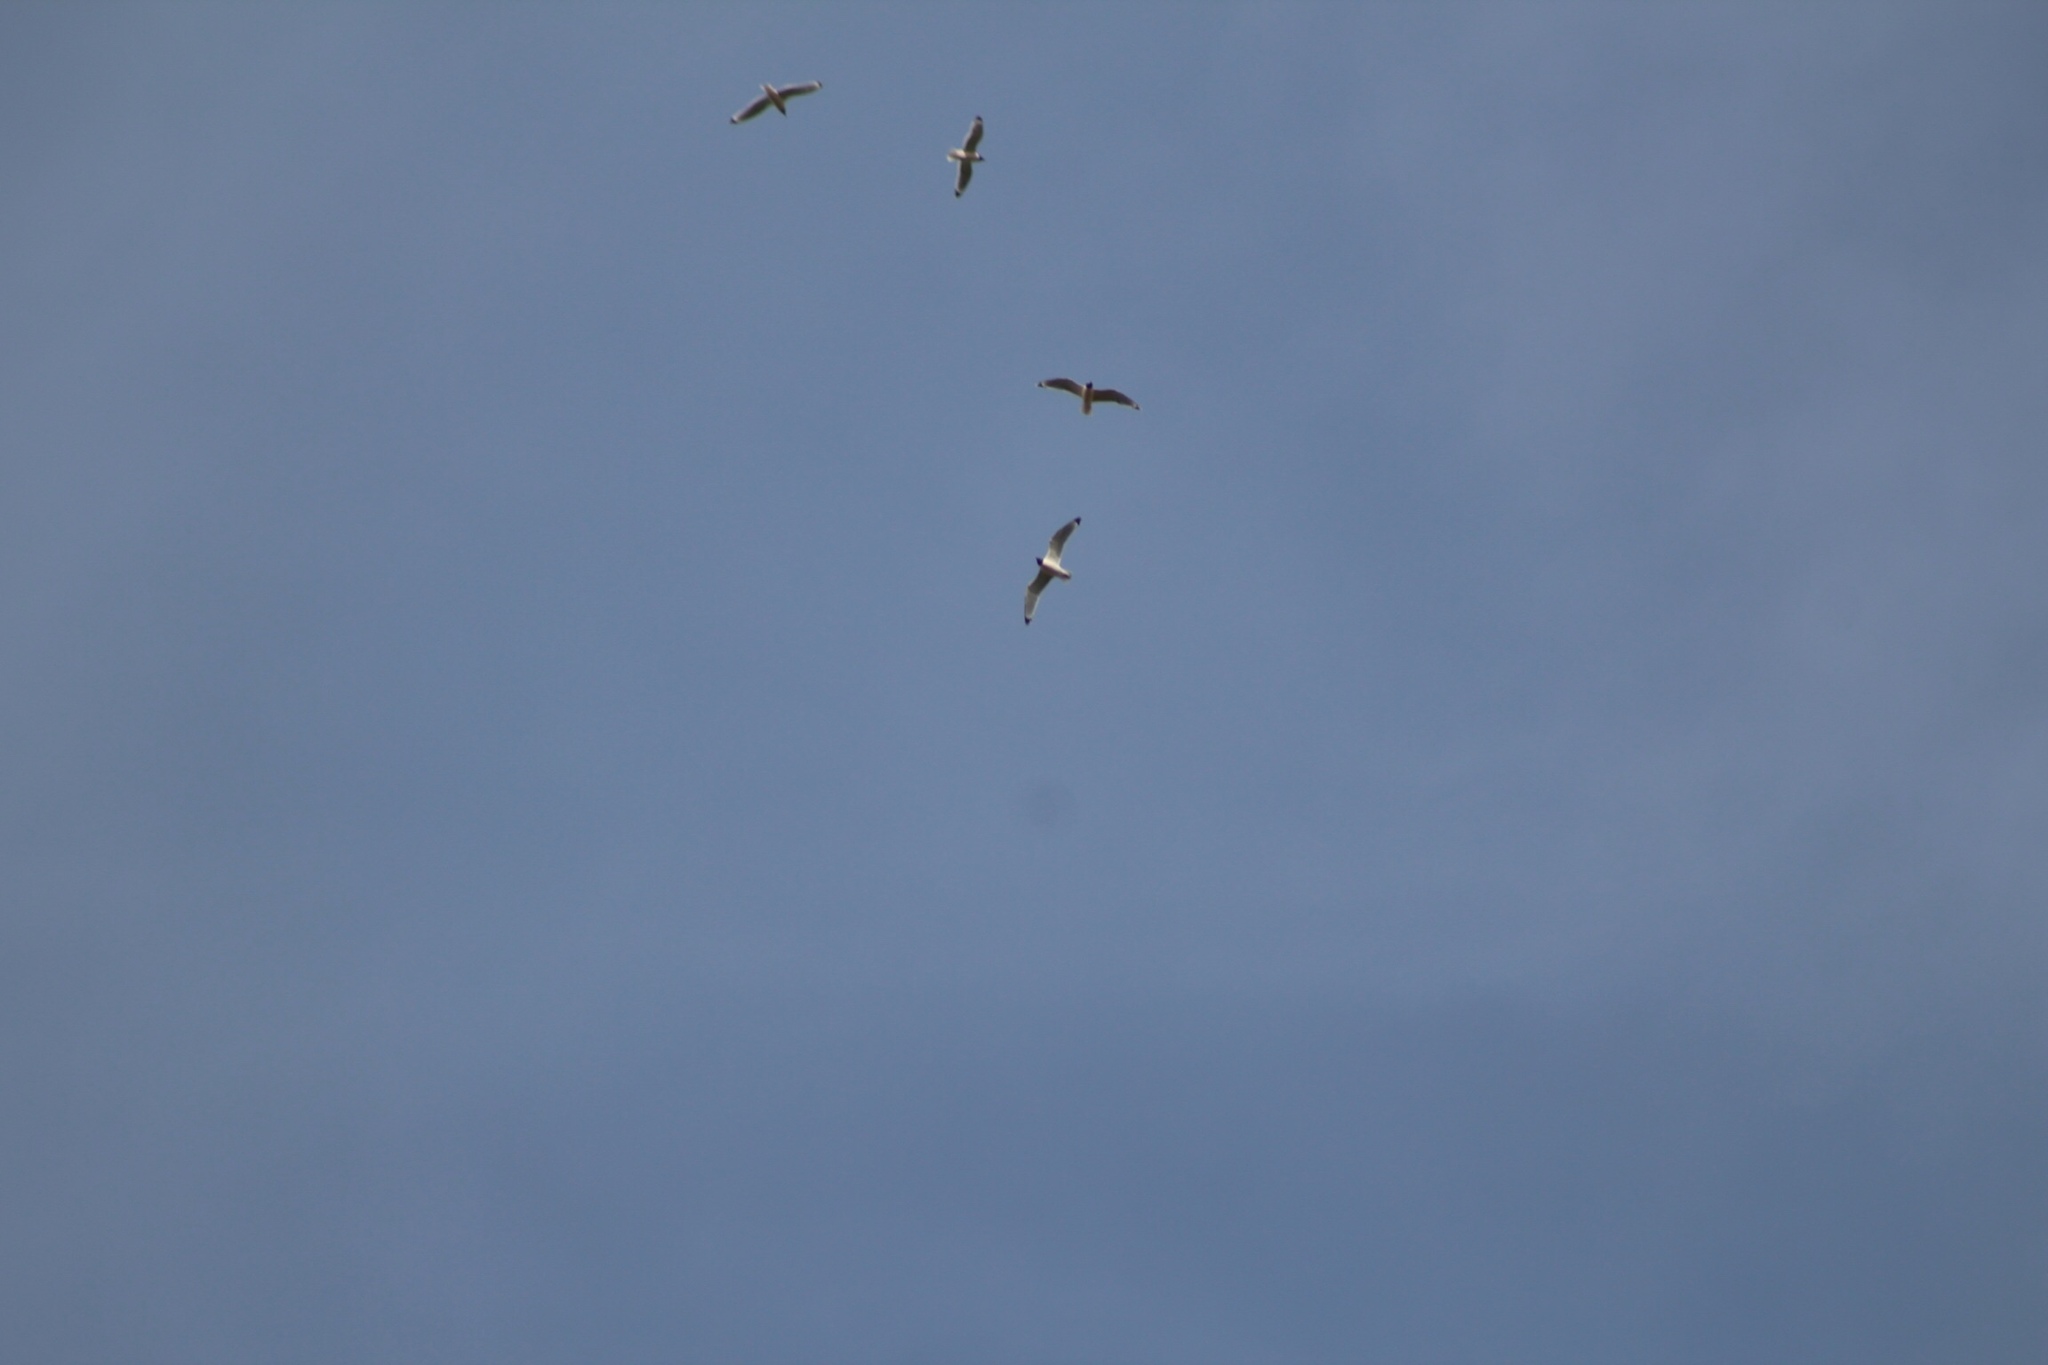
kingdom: Animalia
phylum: Chordata
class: Aves
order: Charadriiformes
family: Laridae
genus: Leucophaeus
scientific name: Leucophaeus pipixcan
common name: Franklin's gull
